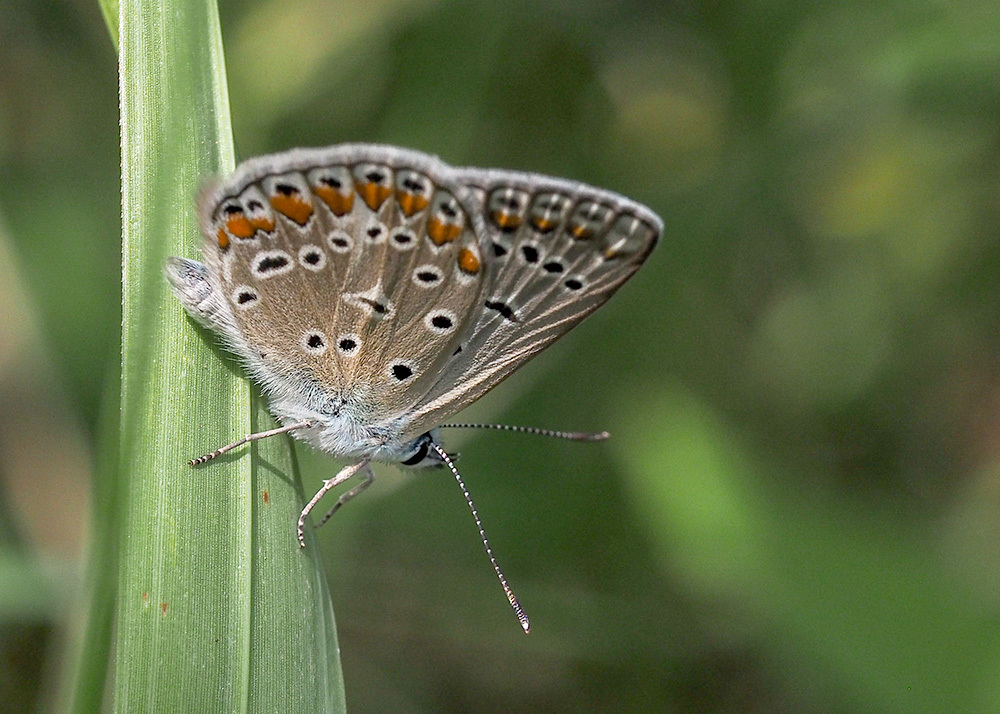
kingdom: Animalia
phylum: Arthropoda
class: Insecta
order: Lepidoptera
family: Lycaenidae
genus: Polyommatus
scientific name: Polyommatus icarus
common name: Common blue
